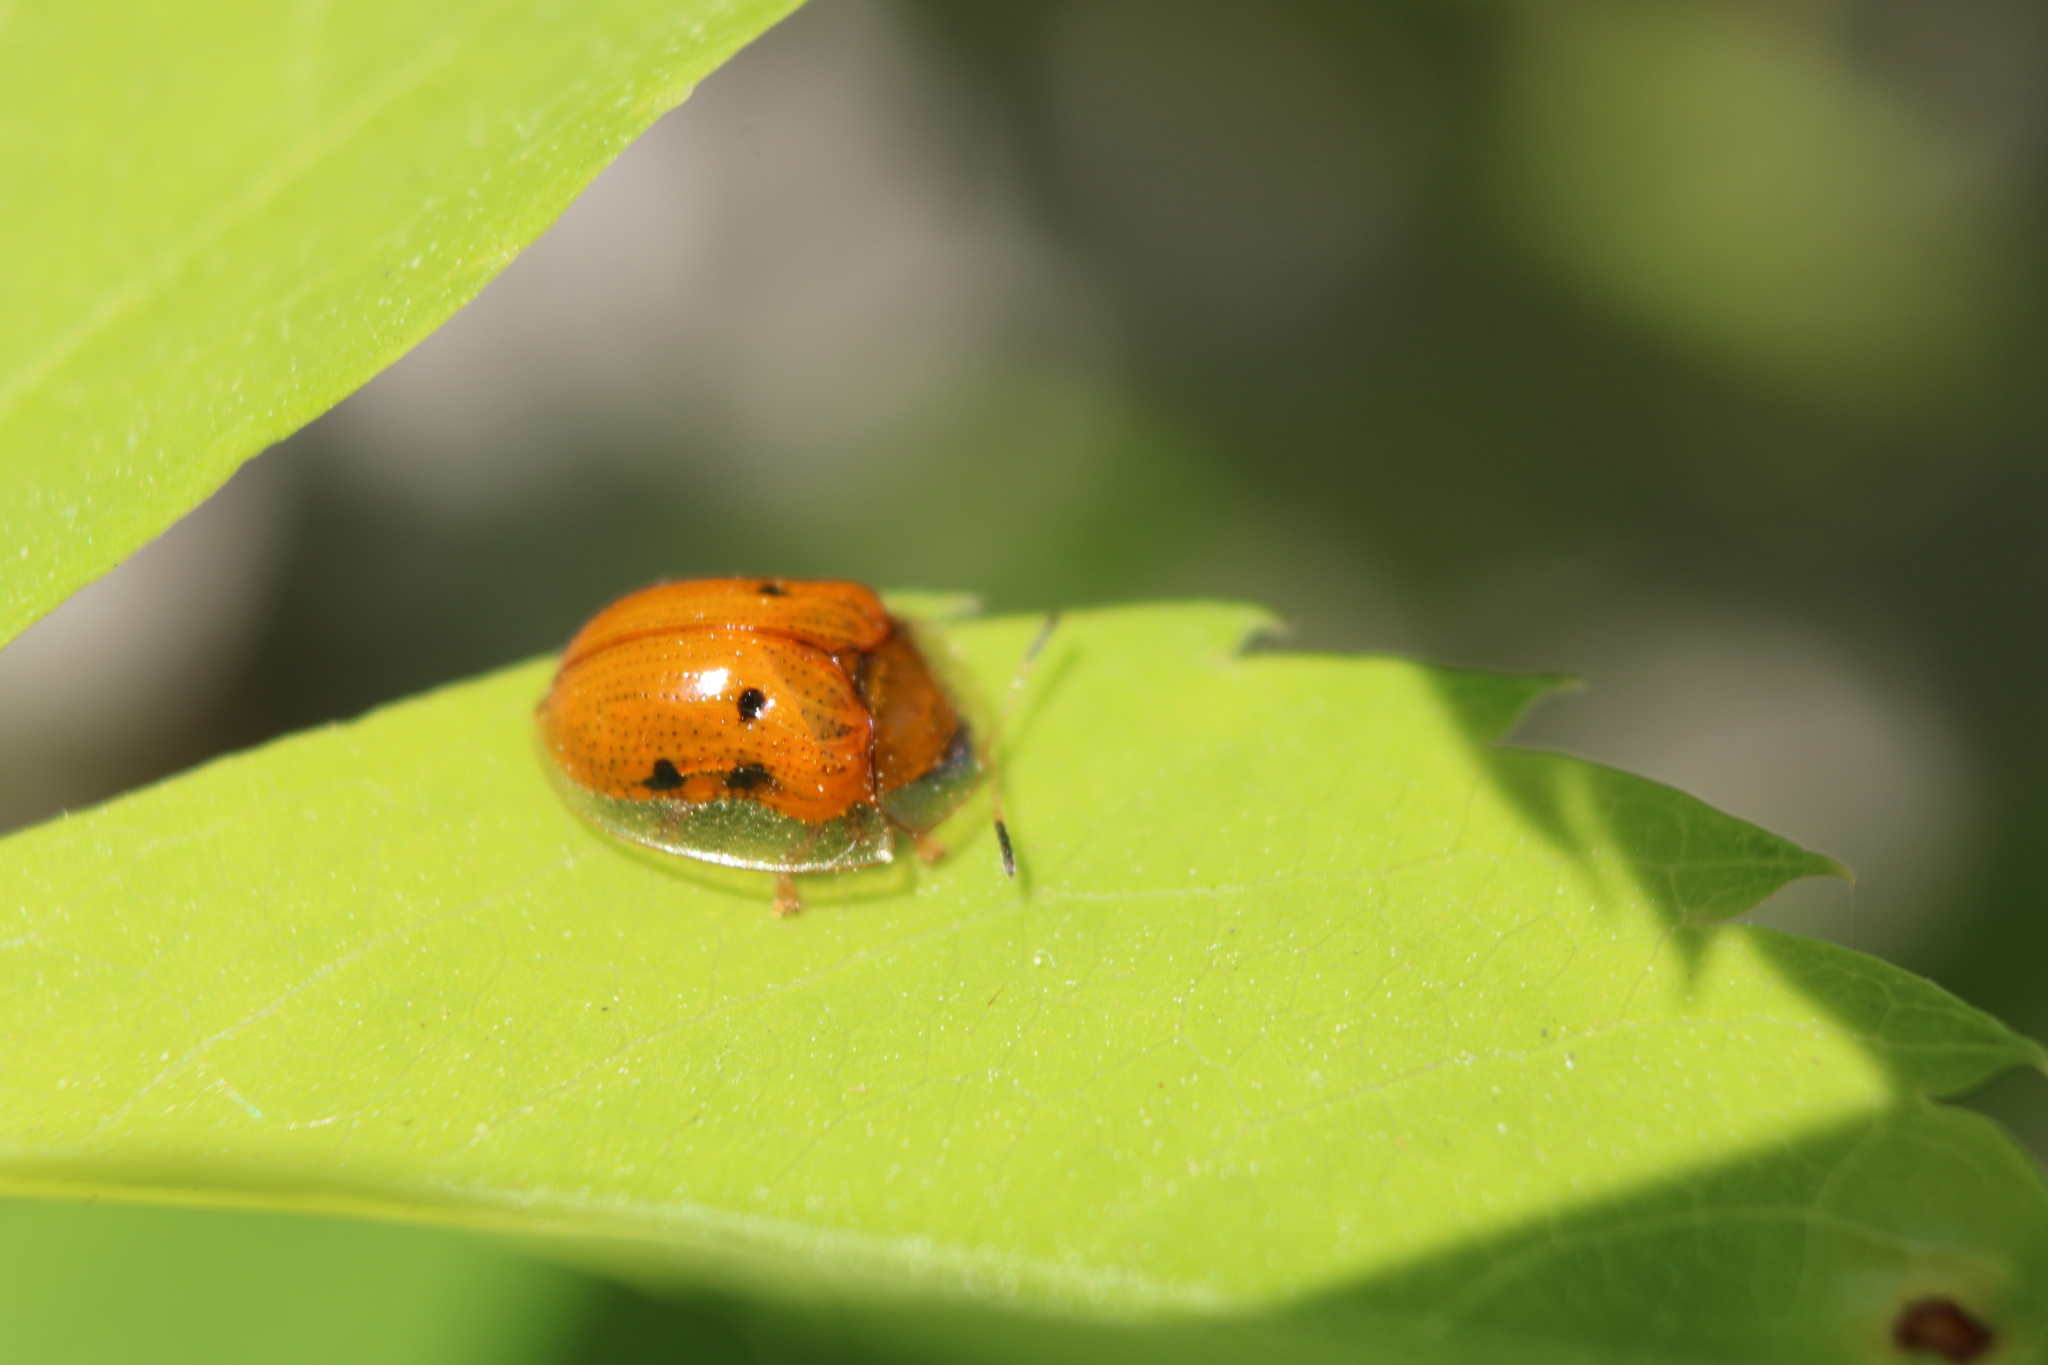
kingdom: Animalia
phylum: Arthropoda
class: Insecta
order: Coleoptera
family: Chrysomelidae
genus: Charidotella
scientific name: Charidotella sexpunctata
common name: Golden tortoise beetle
